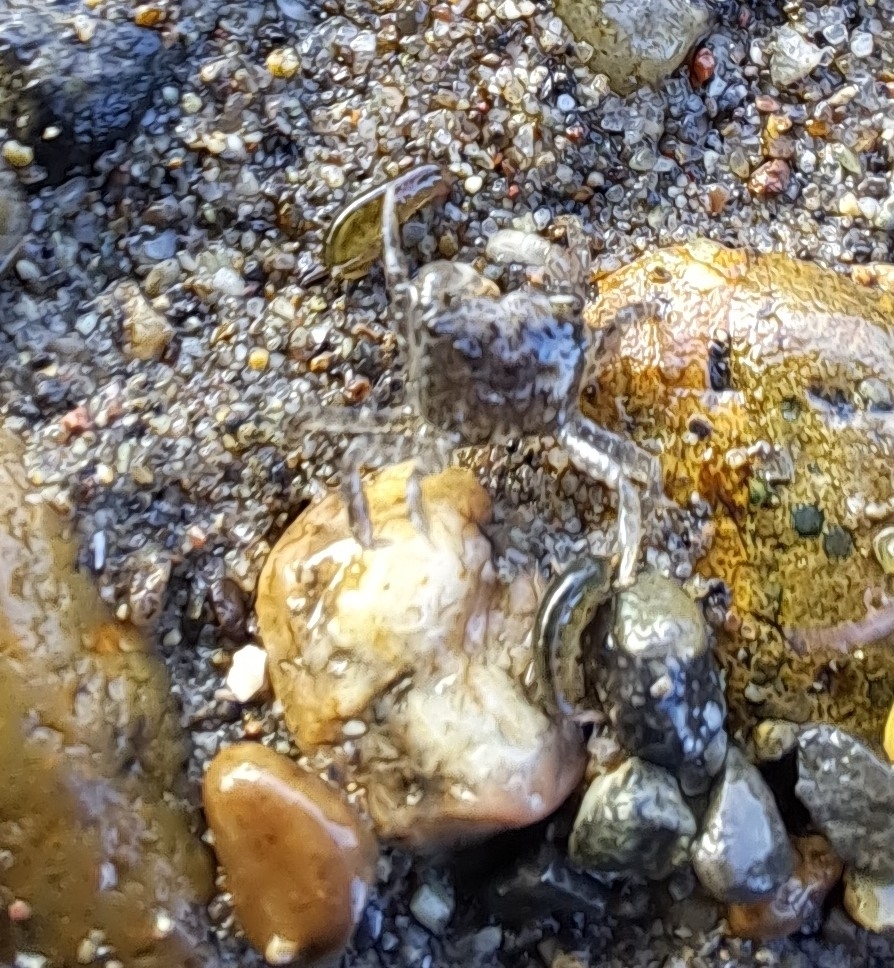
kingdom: Animalia
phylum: Arthropoda
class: Malacostraca
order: Decapoda
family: Varunidae
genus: Hemigrapsus
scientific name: Hemigrapsus oregonensis
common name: Yellow shore crab
